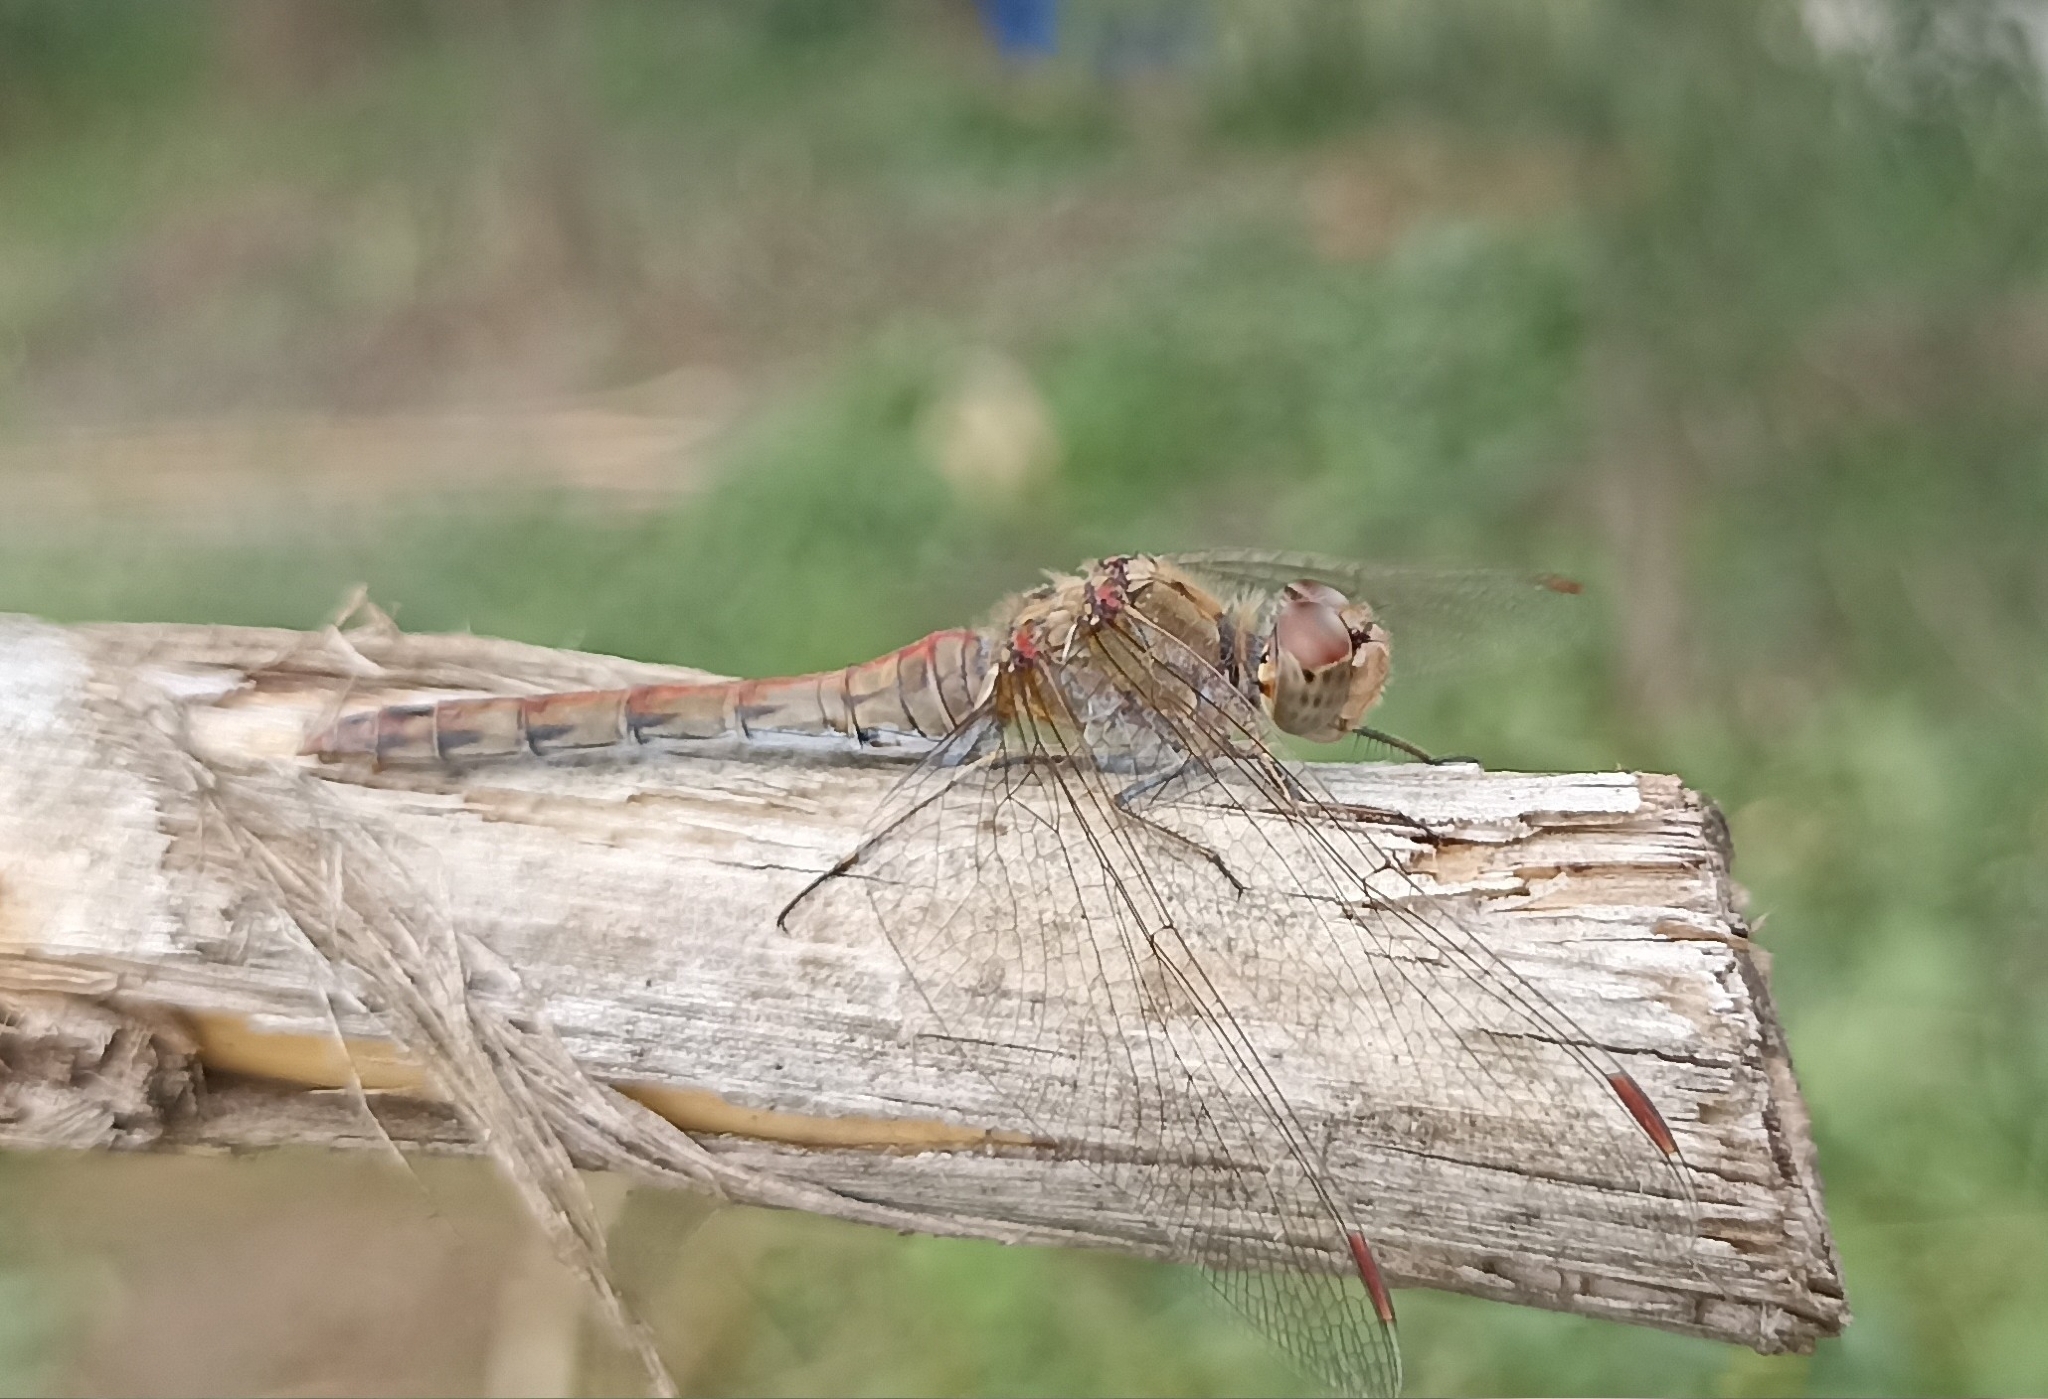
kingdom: Animalia
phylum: Arthropoda
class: Insecta
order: Odonata
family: Libellulidae
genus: Sympetrum
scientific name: Sympetrum striolatum
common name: Common darter
